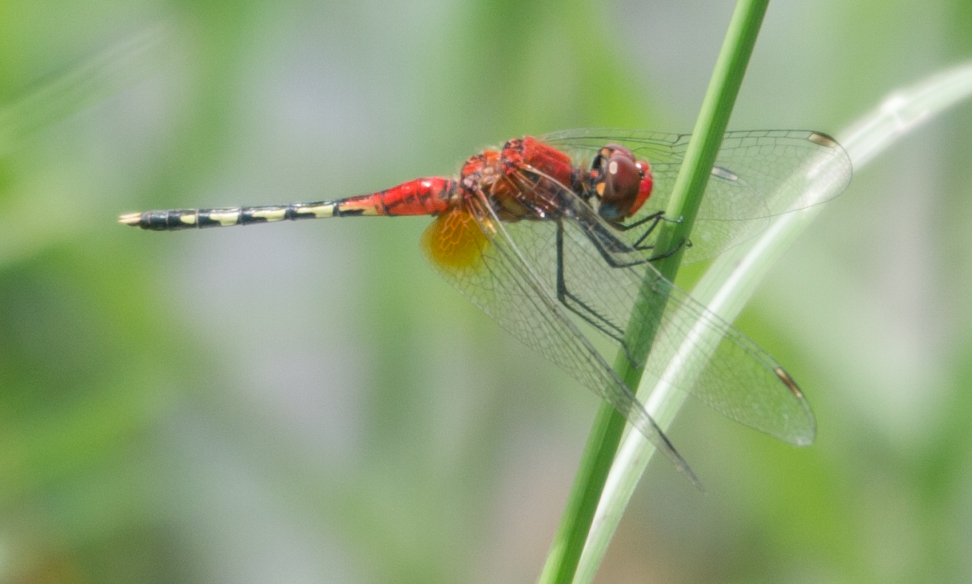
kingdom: Animalia
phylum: Arthropoda
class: Insecta
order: Odonata
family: Libellulidae
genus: Diplacodes
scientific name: Diplacodes luminans
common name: Barbet percher
